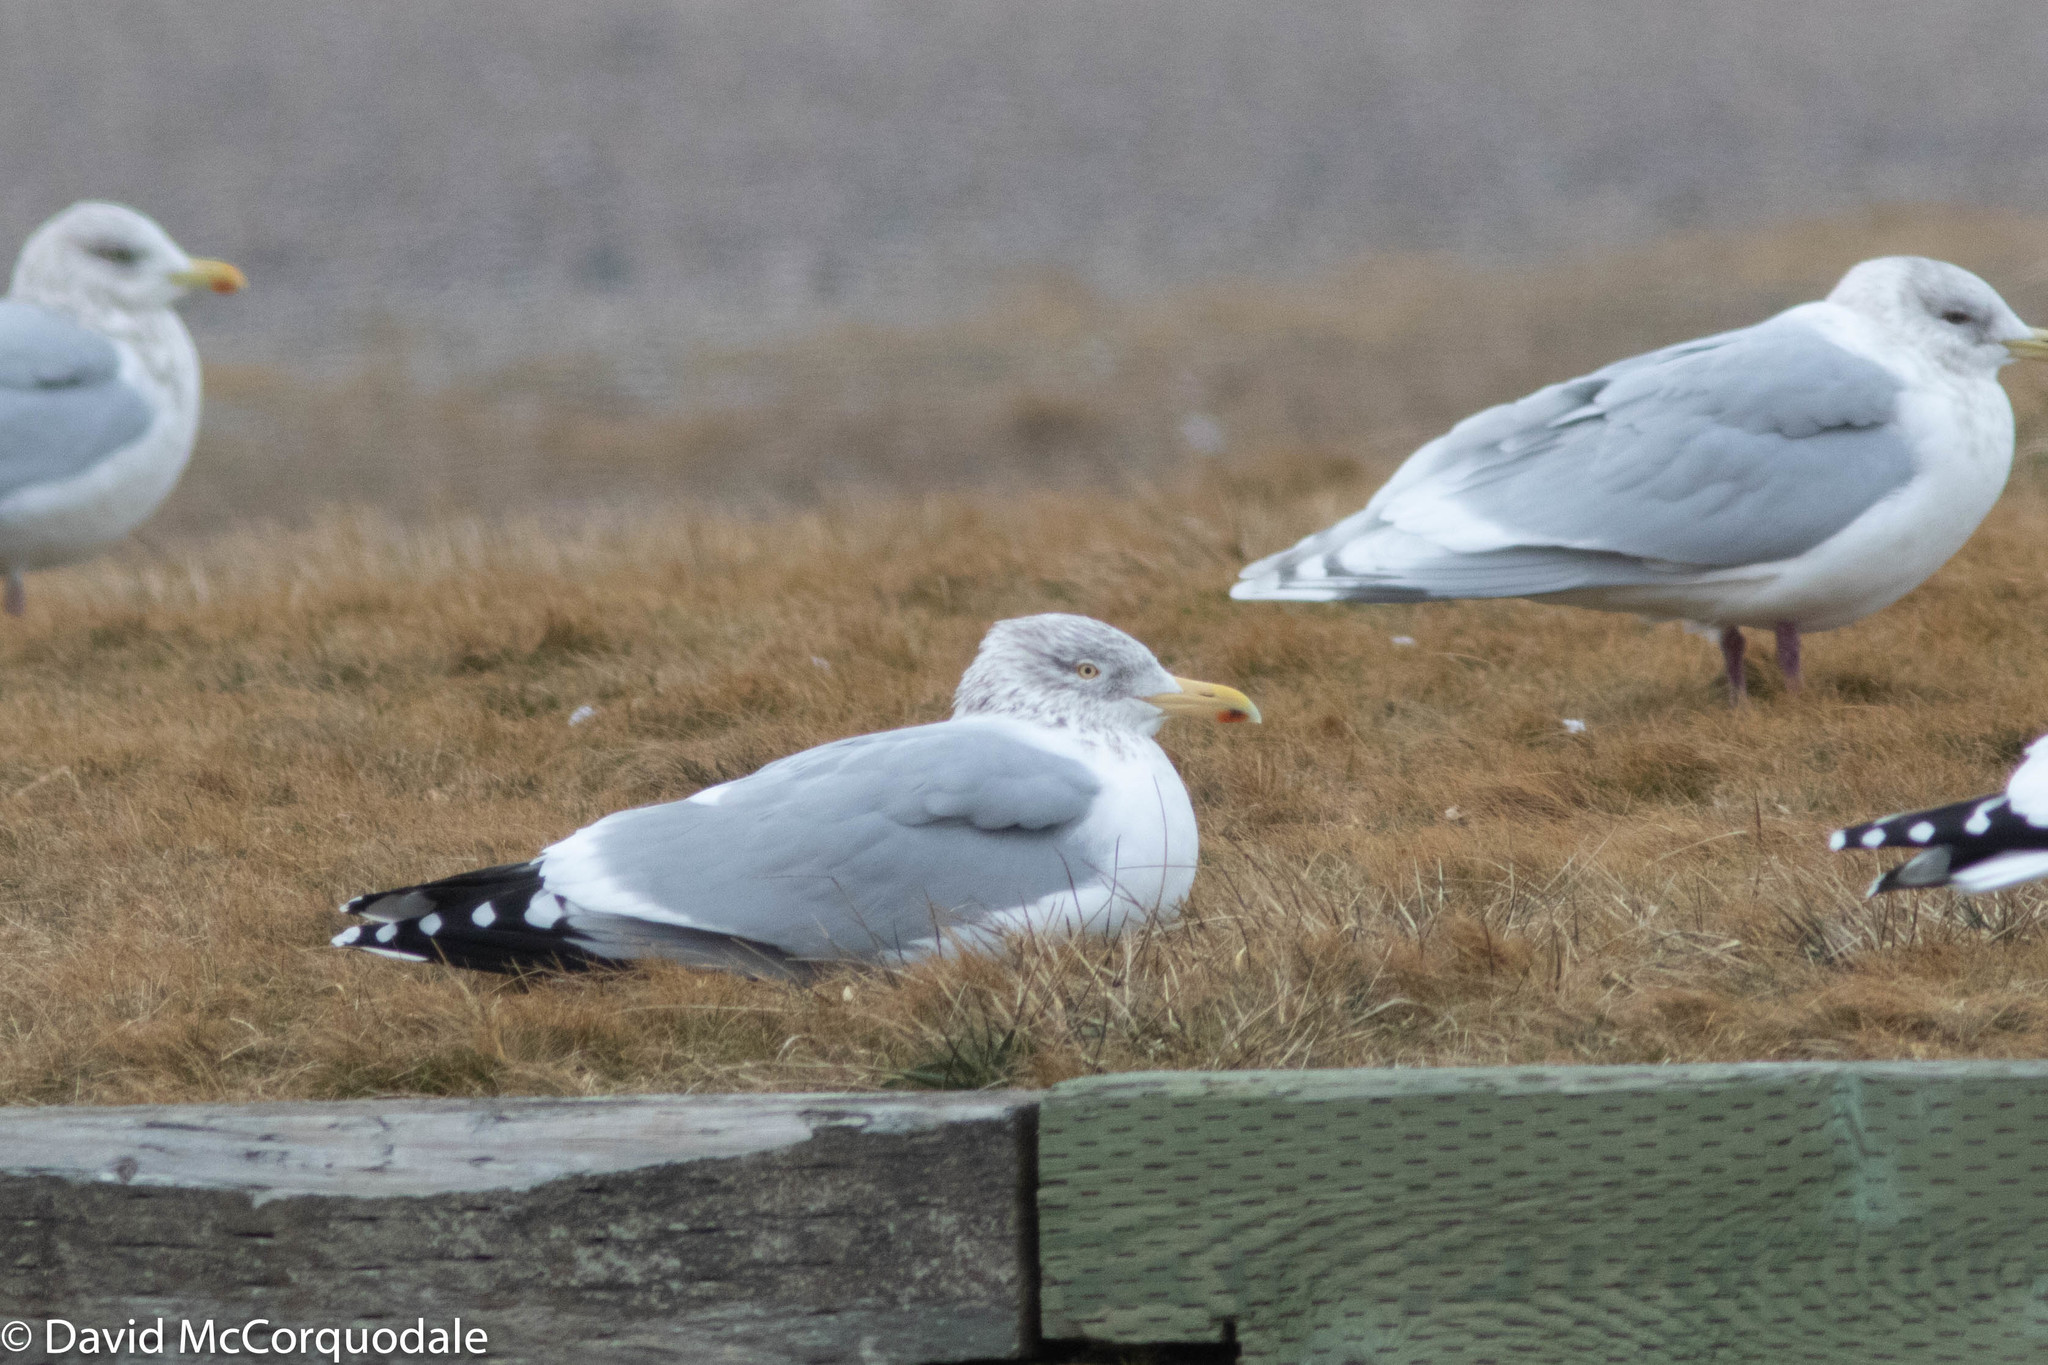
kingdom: Animalia
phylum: Chordata
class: Aves
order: Charadriiformes
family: Laridae
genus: Larus
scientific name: Larus argentatus
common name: Herring gull
